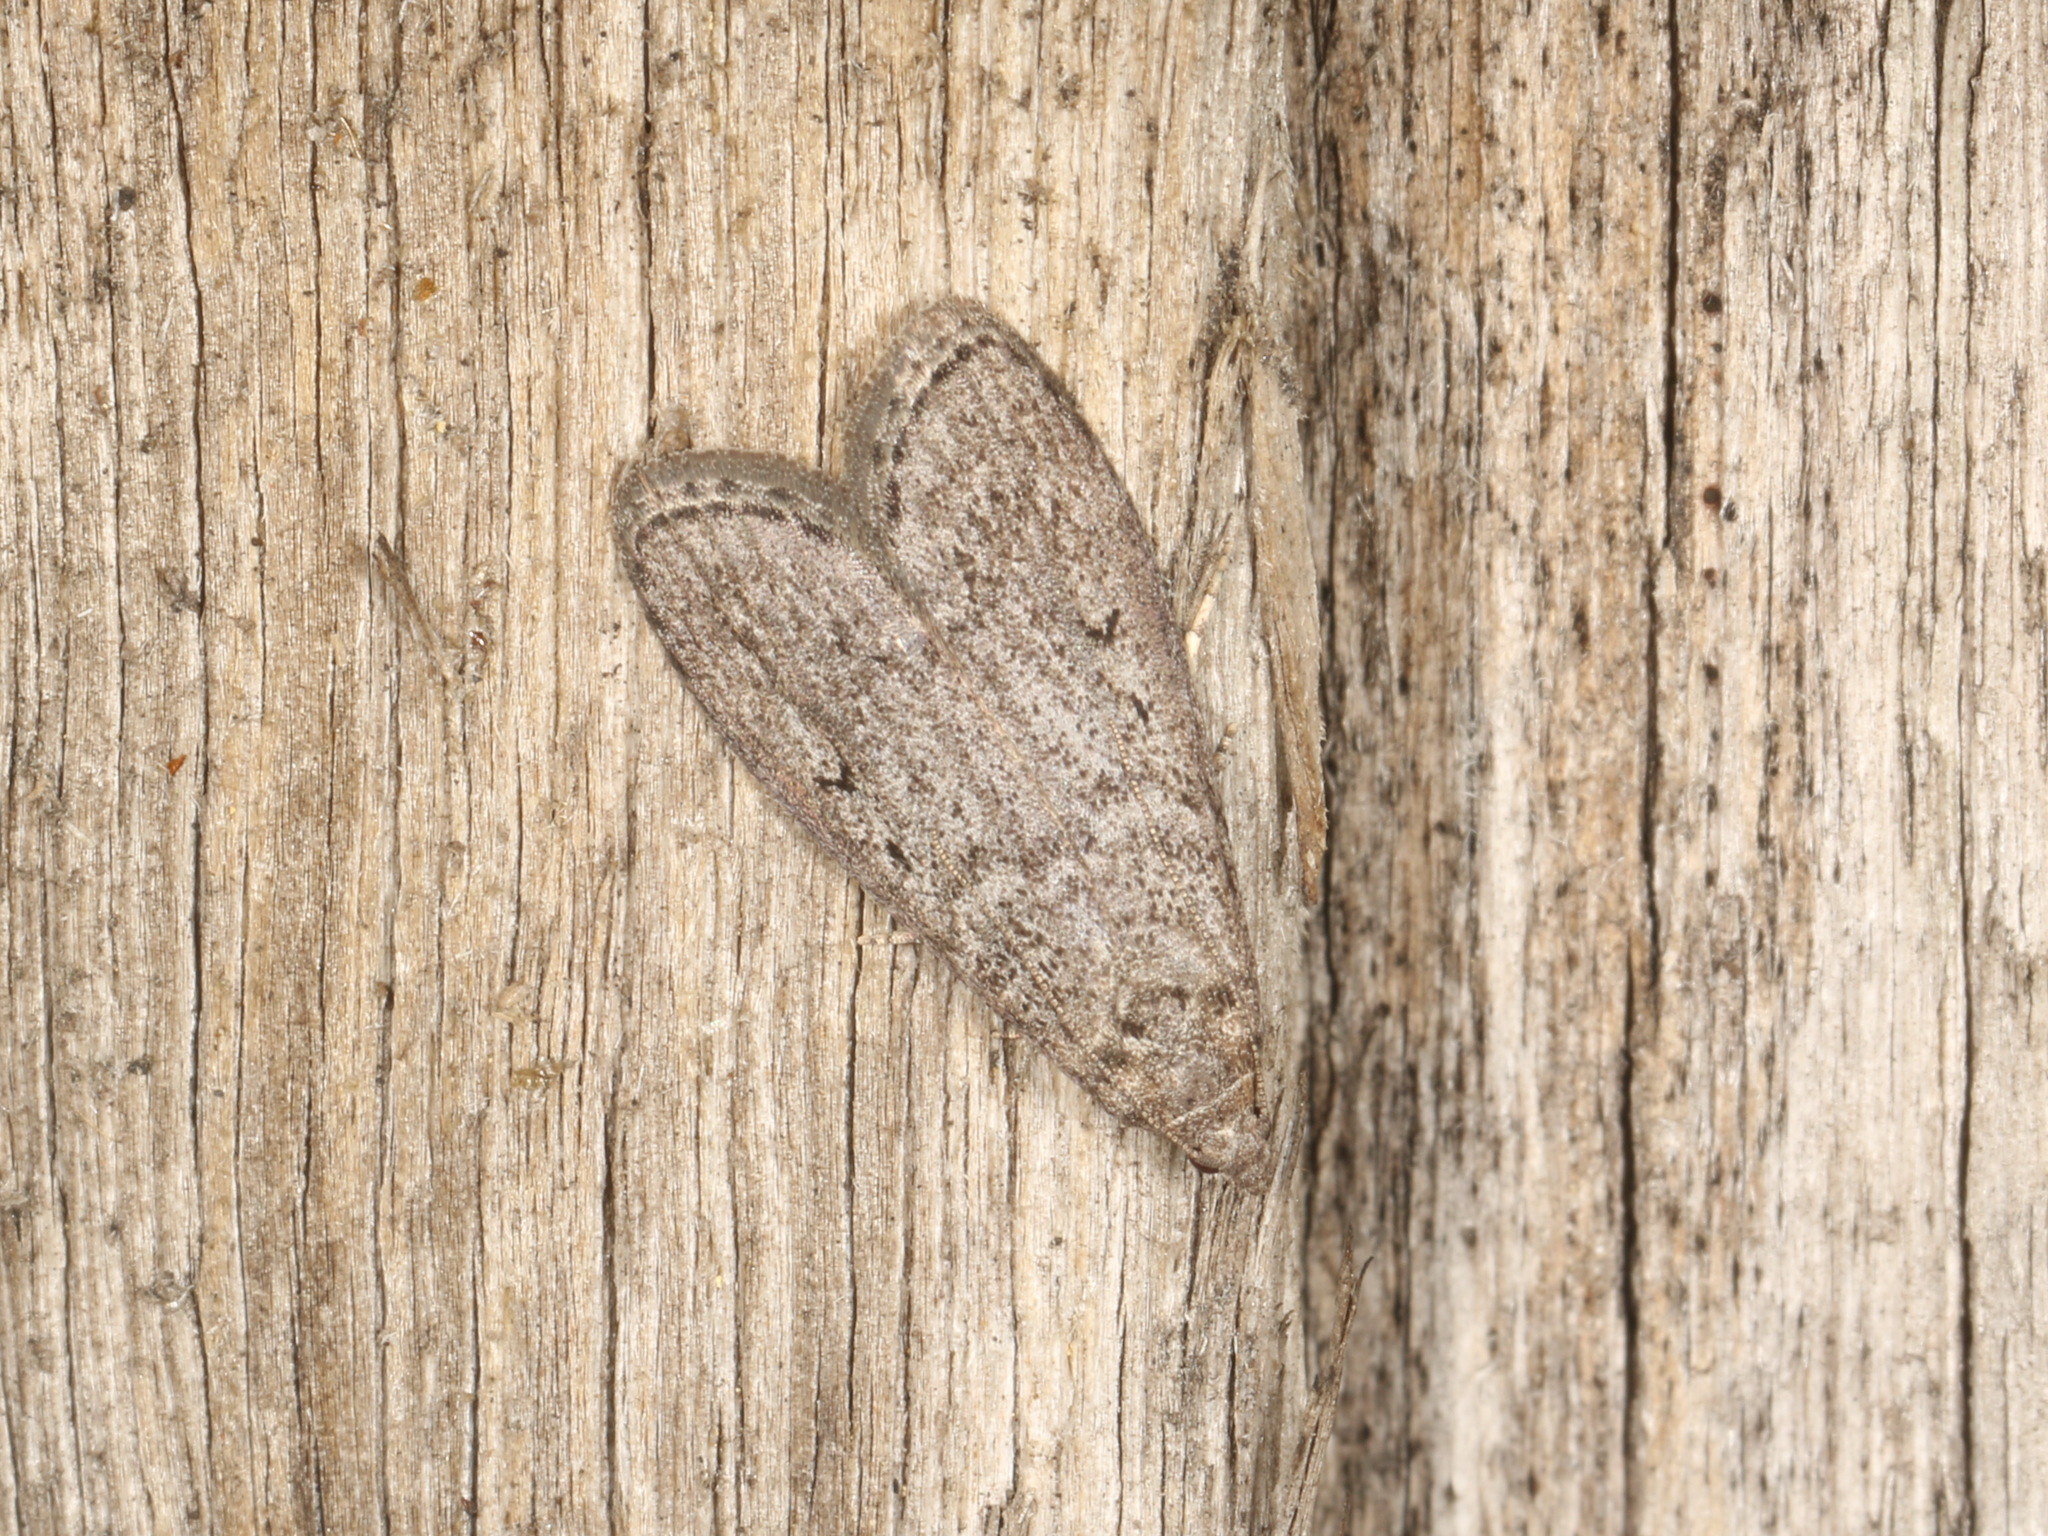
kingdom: Animalia
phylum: Arthropoda
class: Insecta
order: Lepidoptera
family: Pyralidae
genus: Heteromicta
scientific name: Heteromicta pachytera
